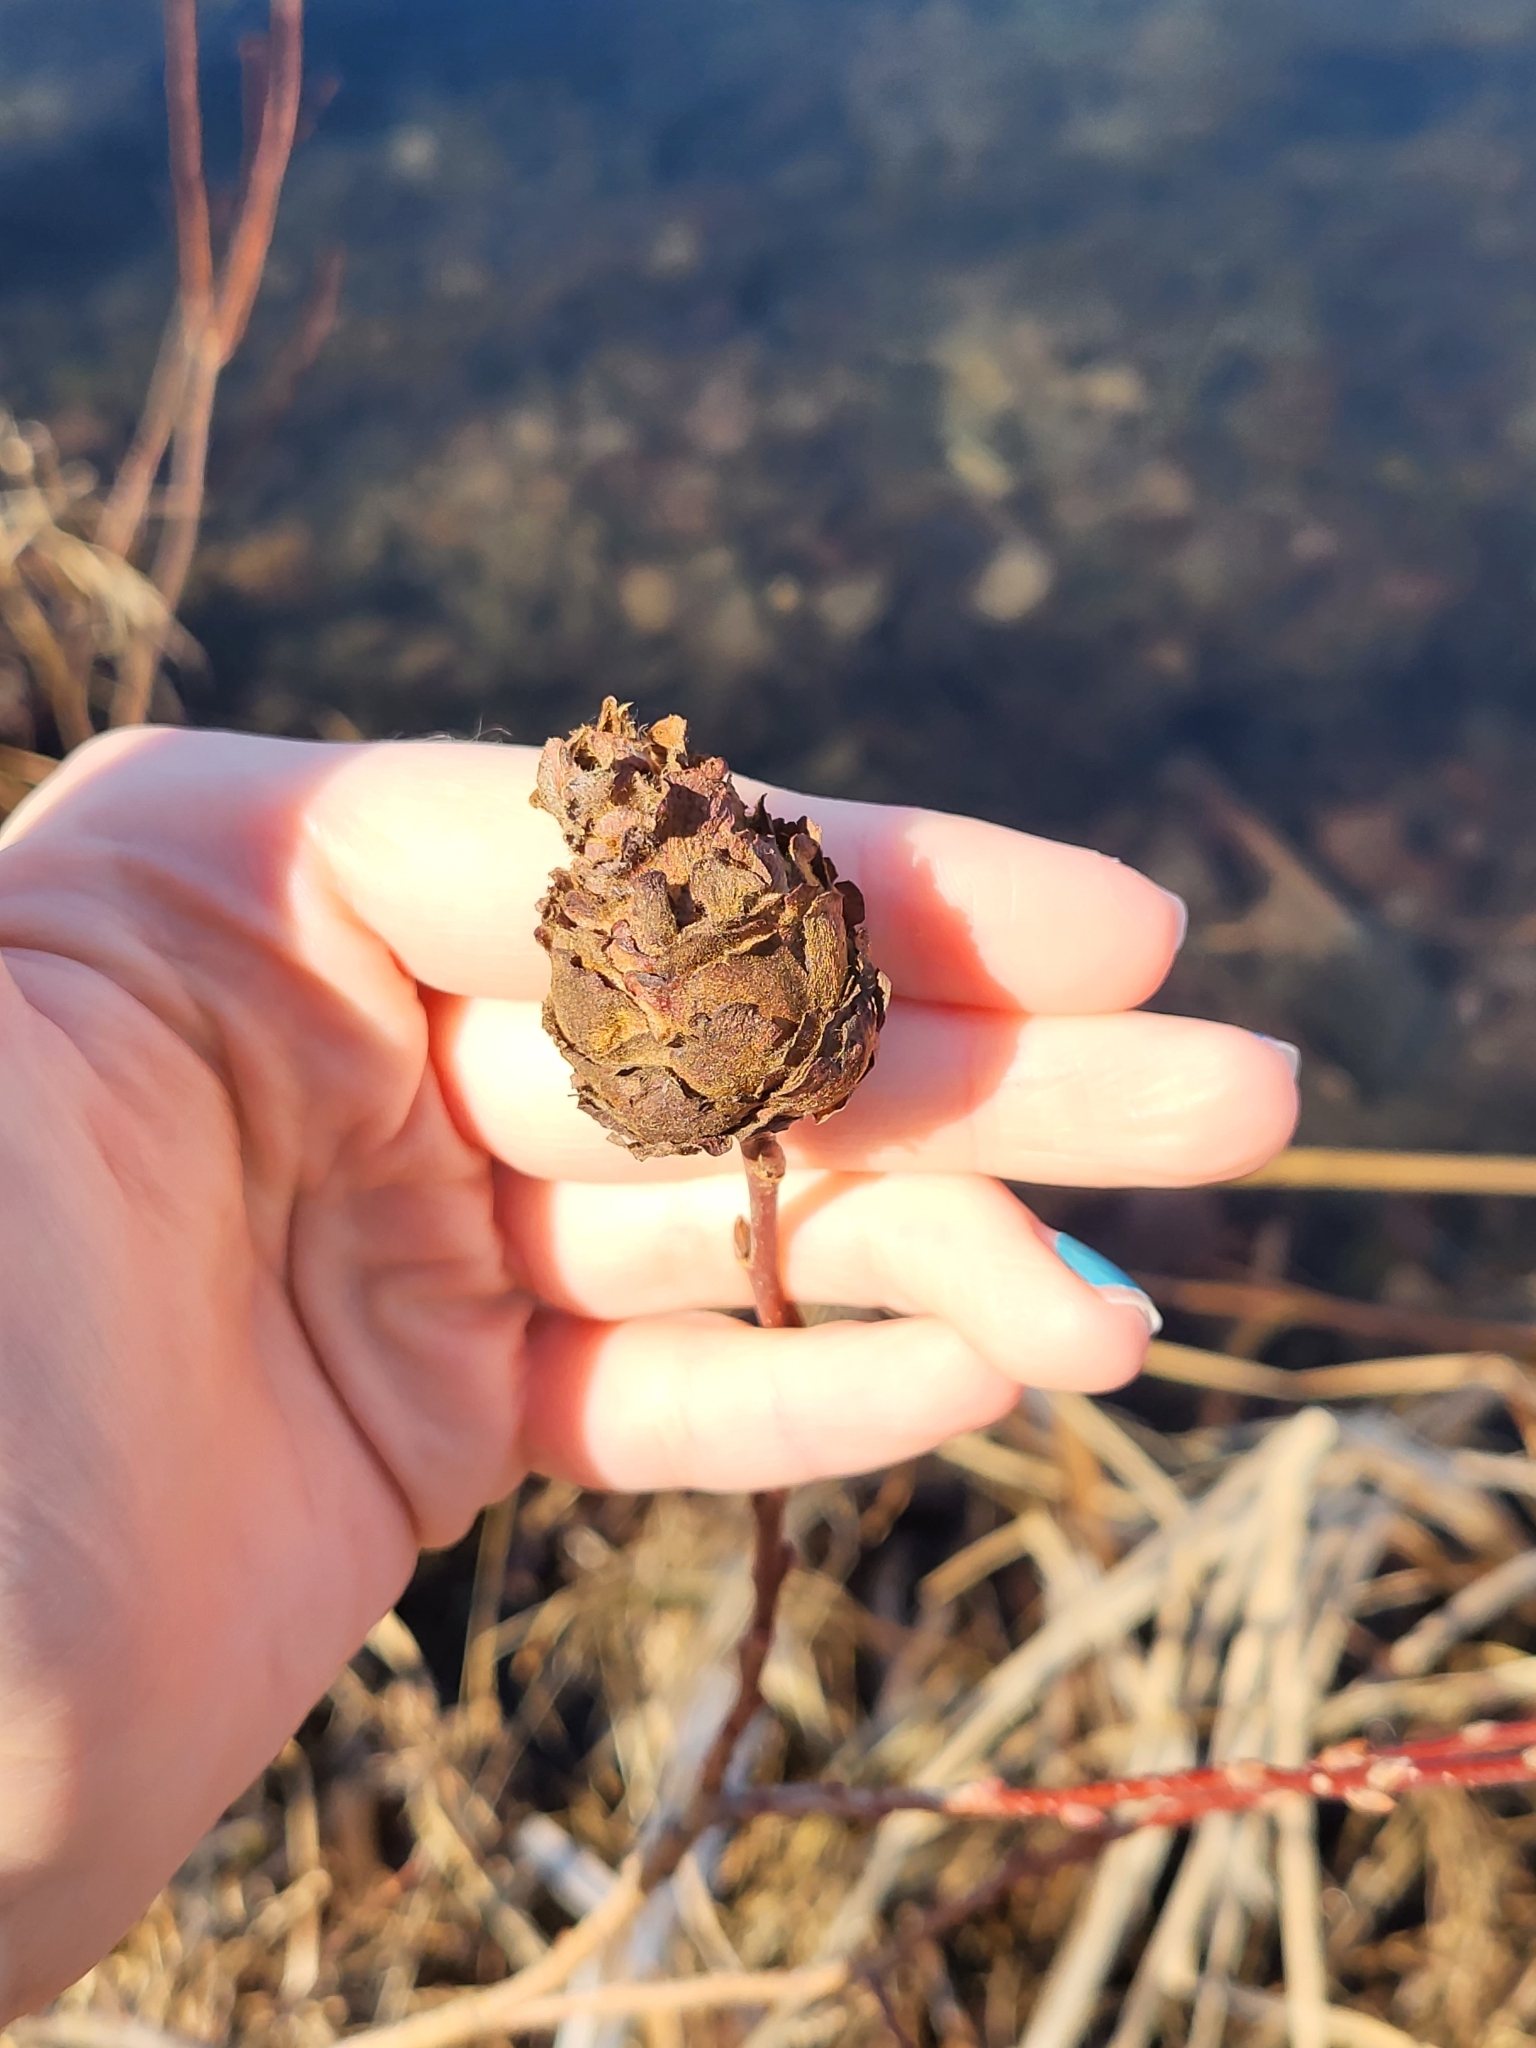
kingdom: Animalia
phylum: Arthropoda
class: Insecta
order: Diptera
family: Cecidomyiidae
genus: Rabdophaga
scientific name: Rabdophaga strobiloides
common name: Willow pinecone gall midge
